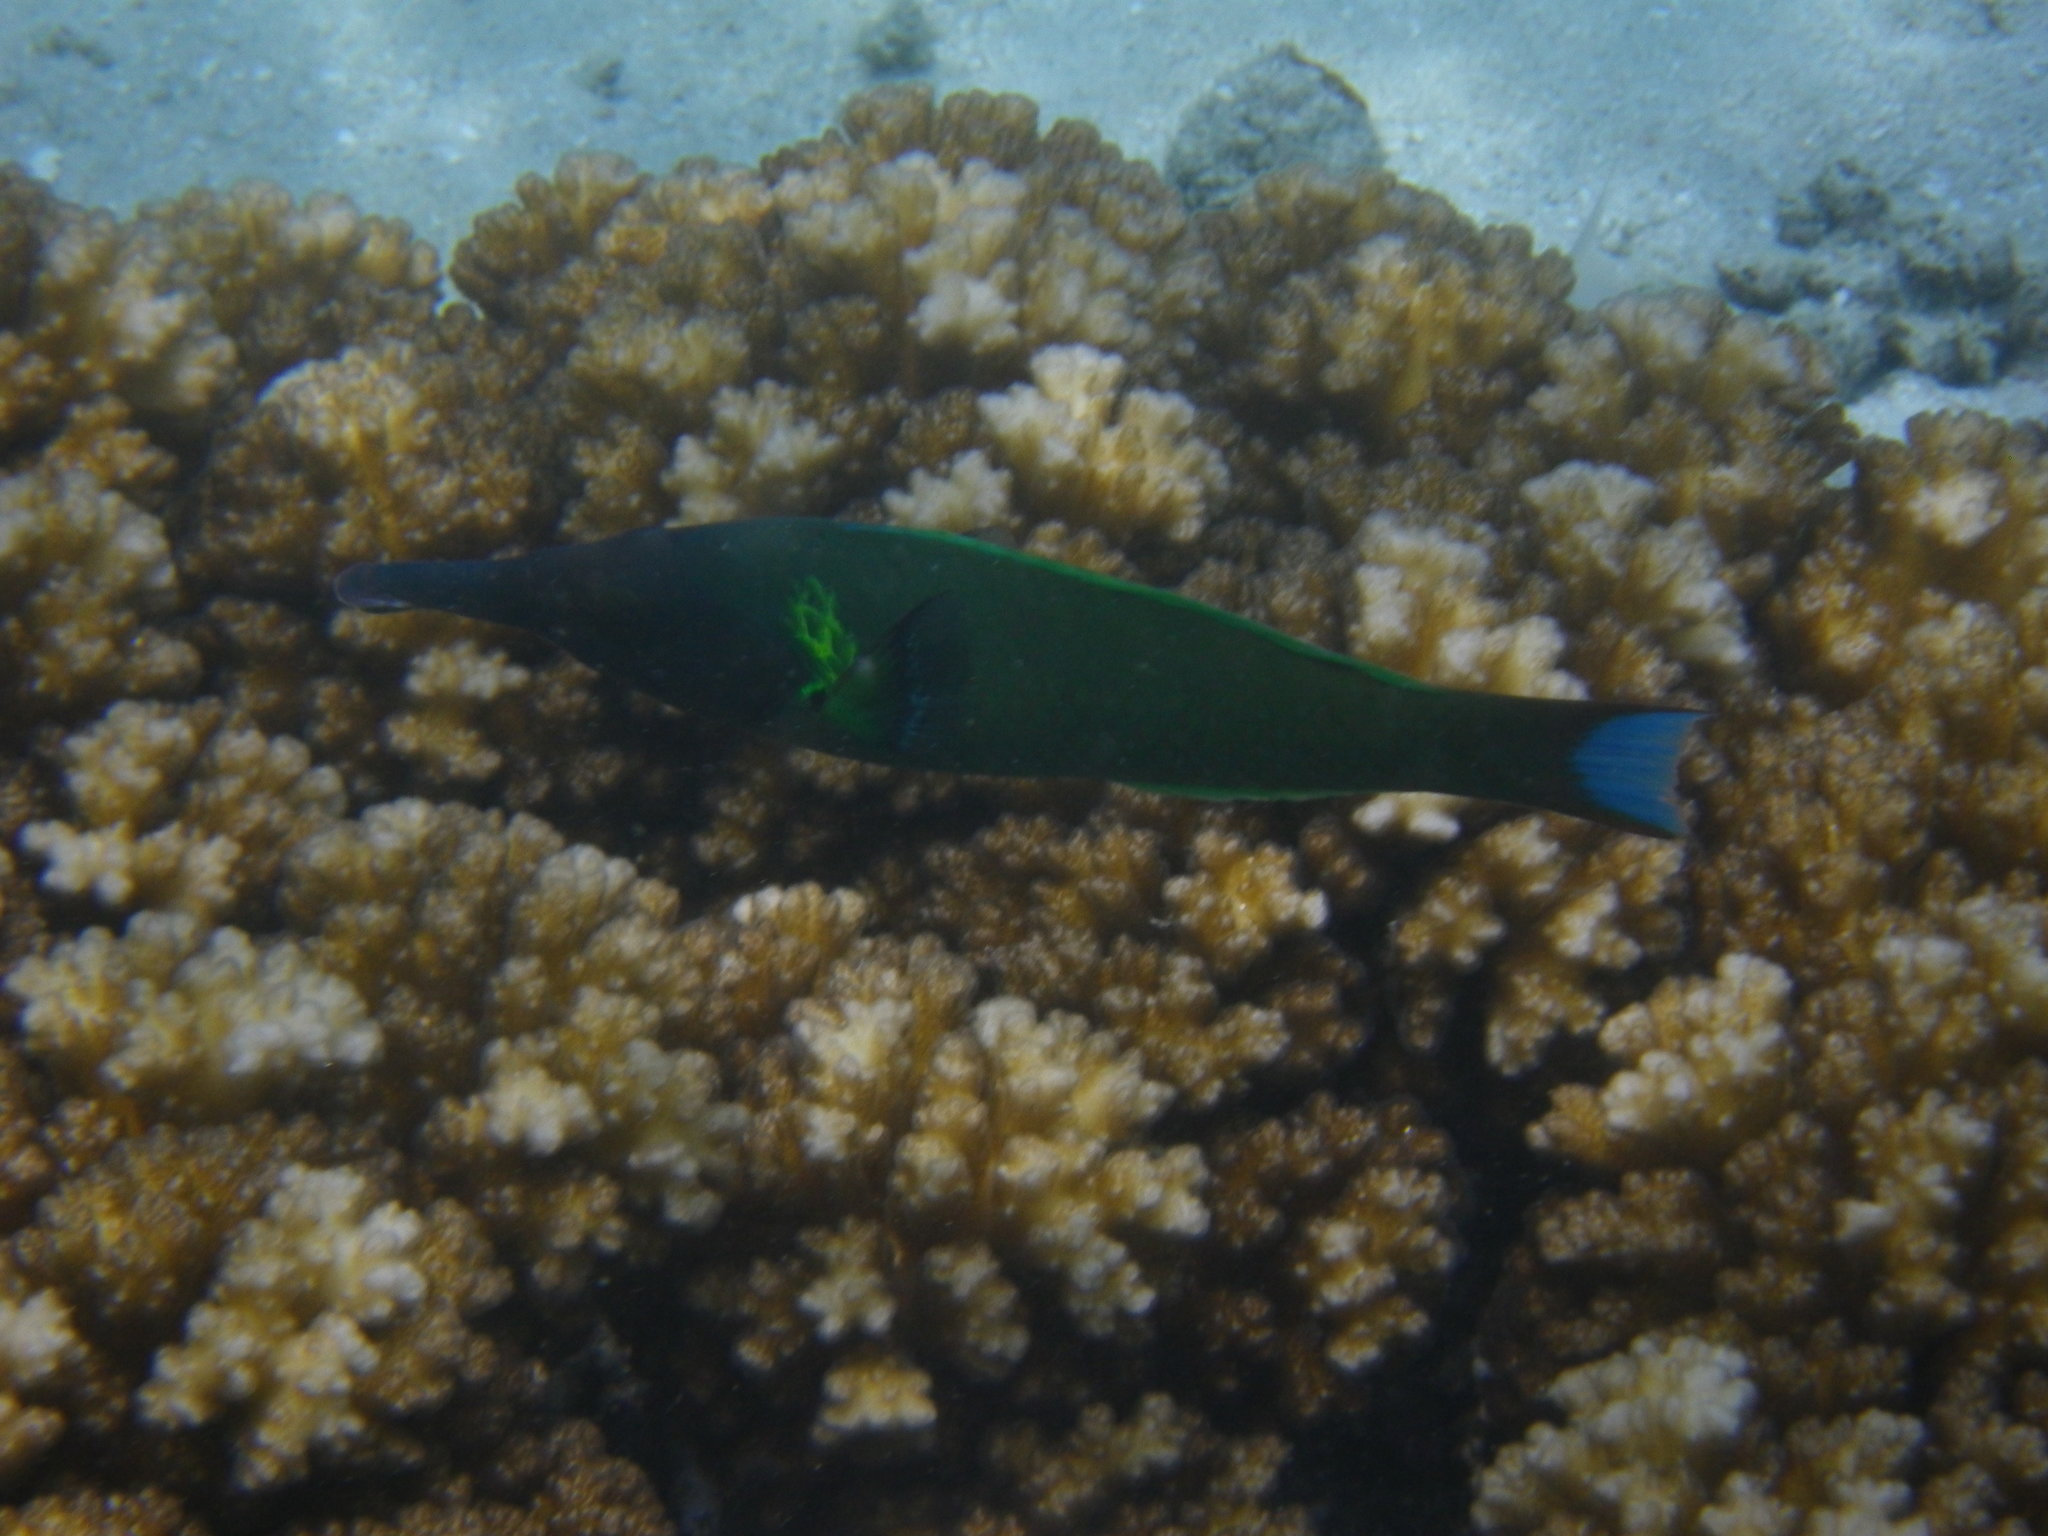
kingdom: Animalia
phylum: Chordata
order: Perciformes
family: Labridae
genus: Gomphosus
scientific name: Gomphosus varius
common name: Bird wrasse
